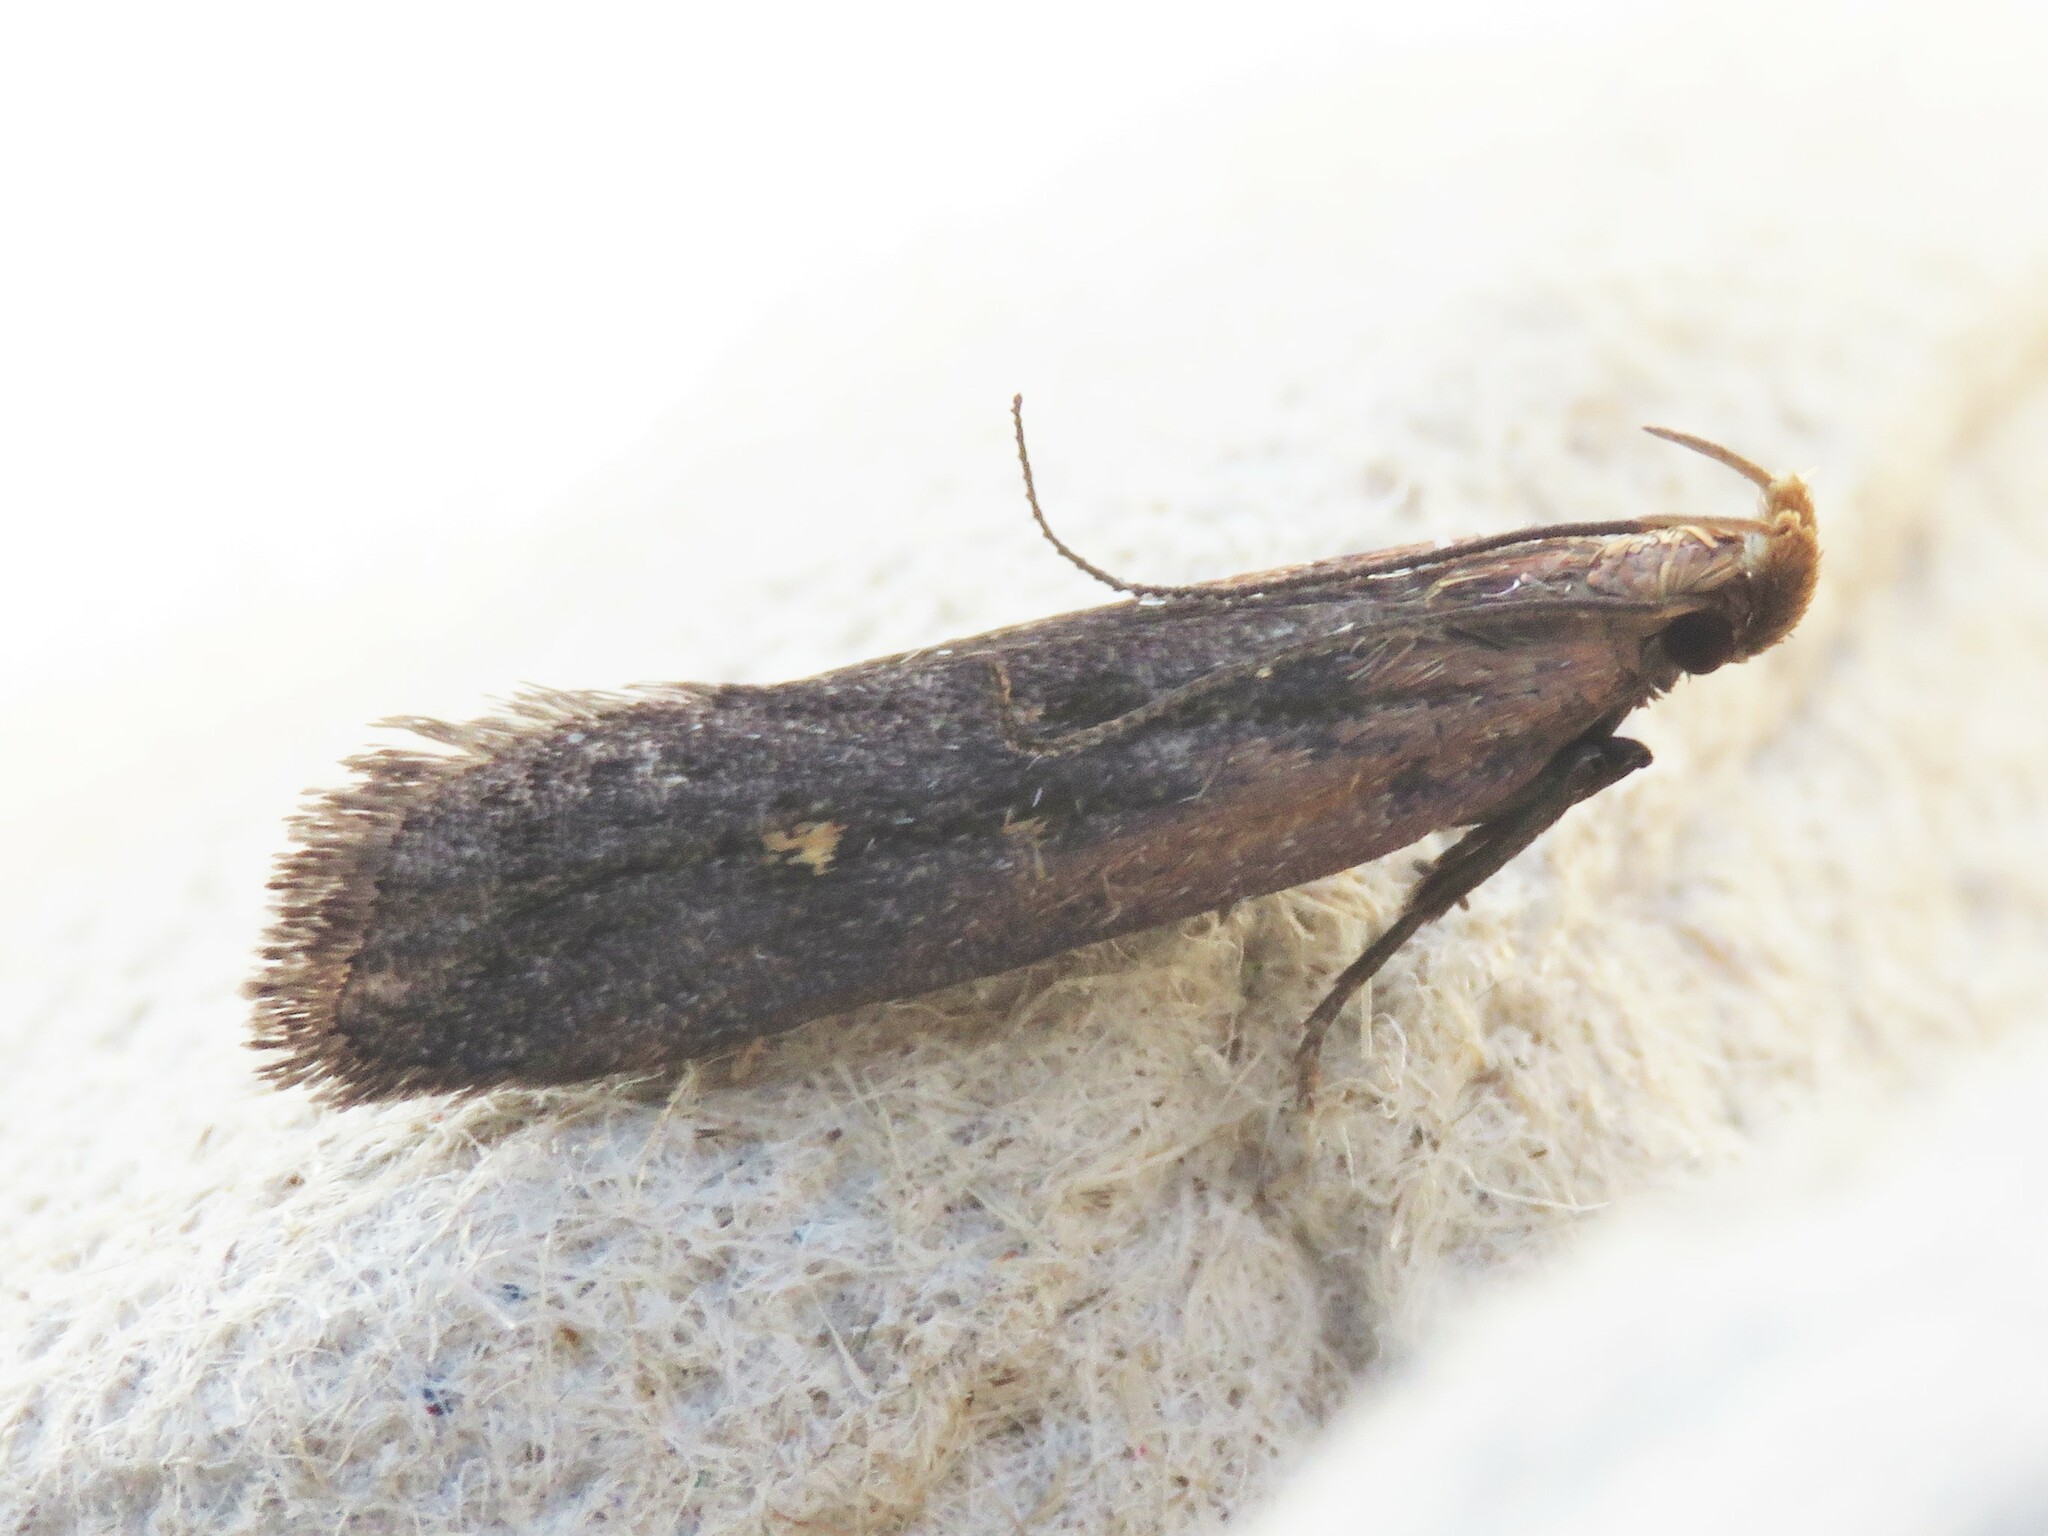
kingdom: Animalia
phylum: Arthropoda
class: Insecta
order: Lepidoptera
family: Gelechiidae
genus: Dichomeris
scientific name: Dichomeris copa
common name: Copa dichomeris moth
